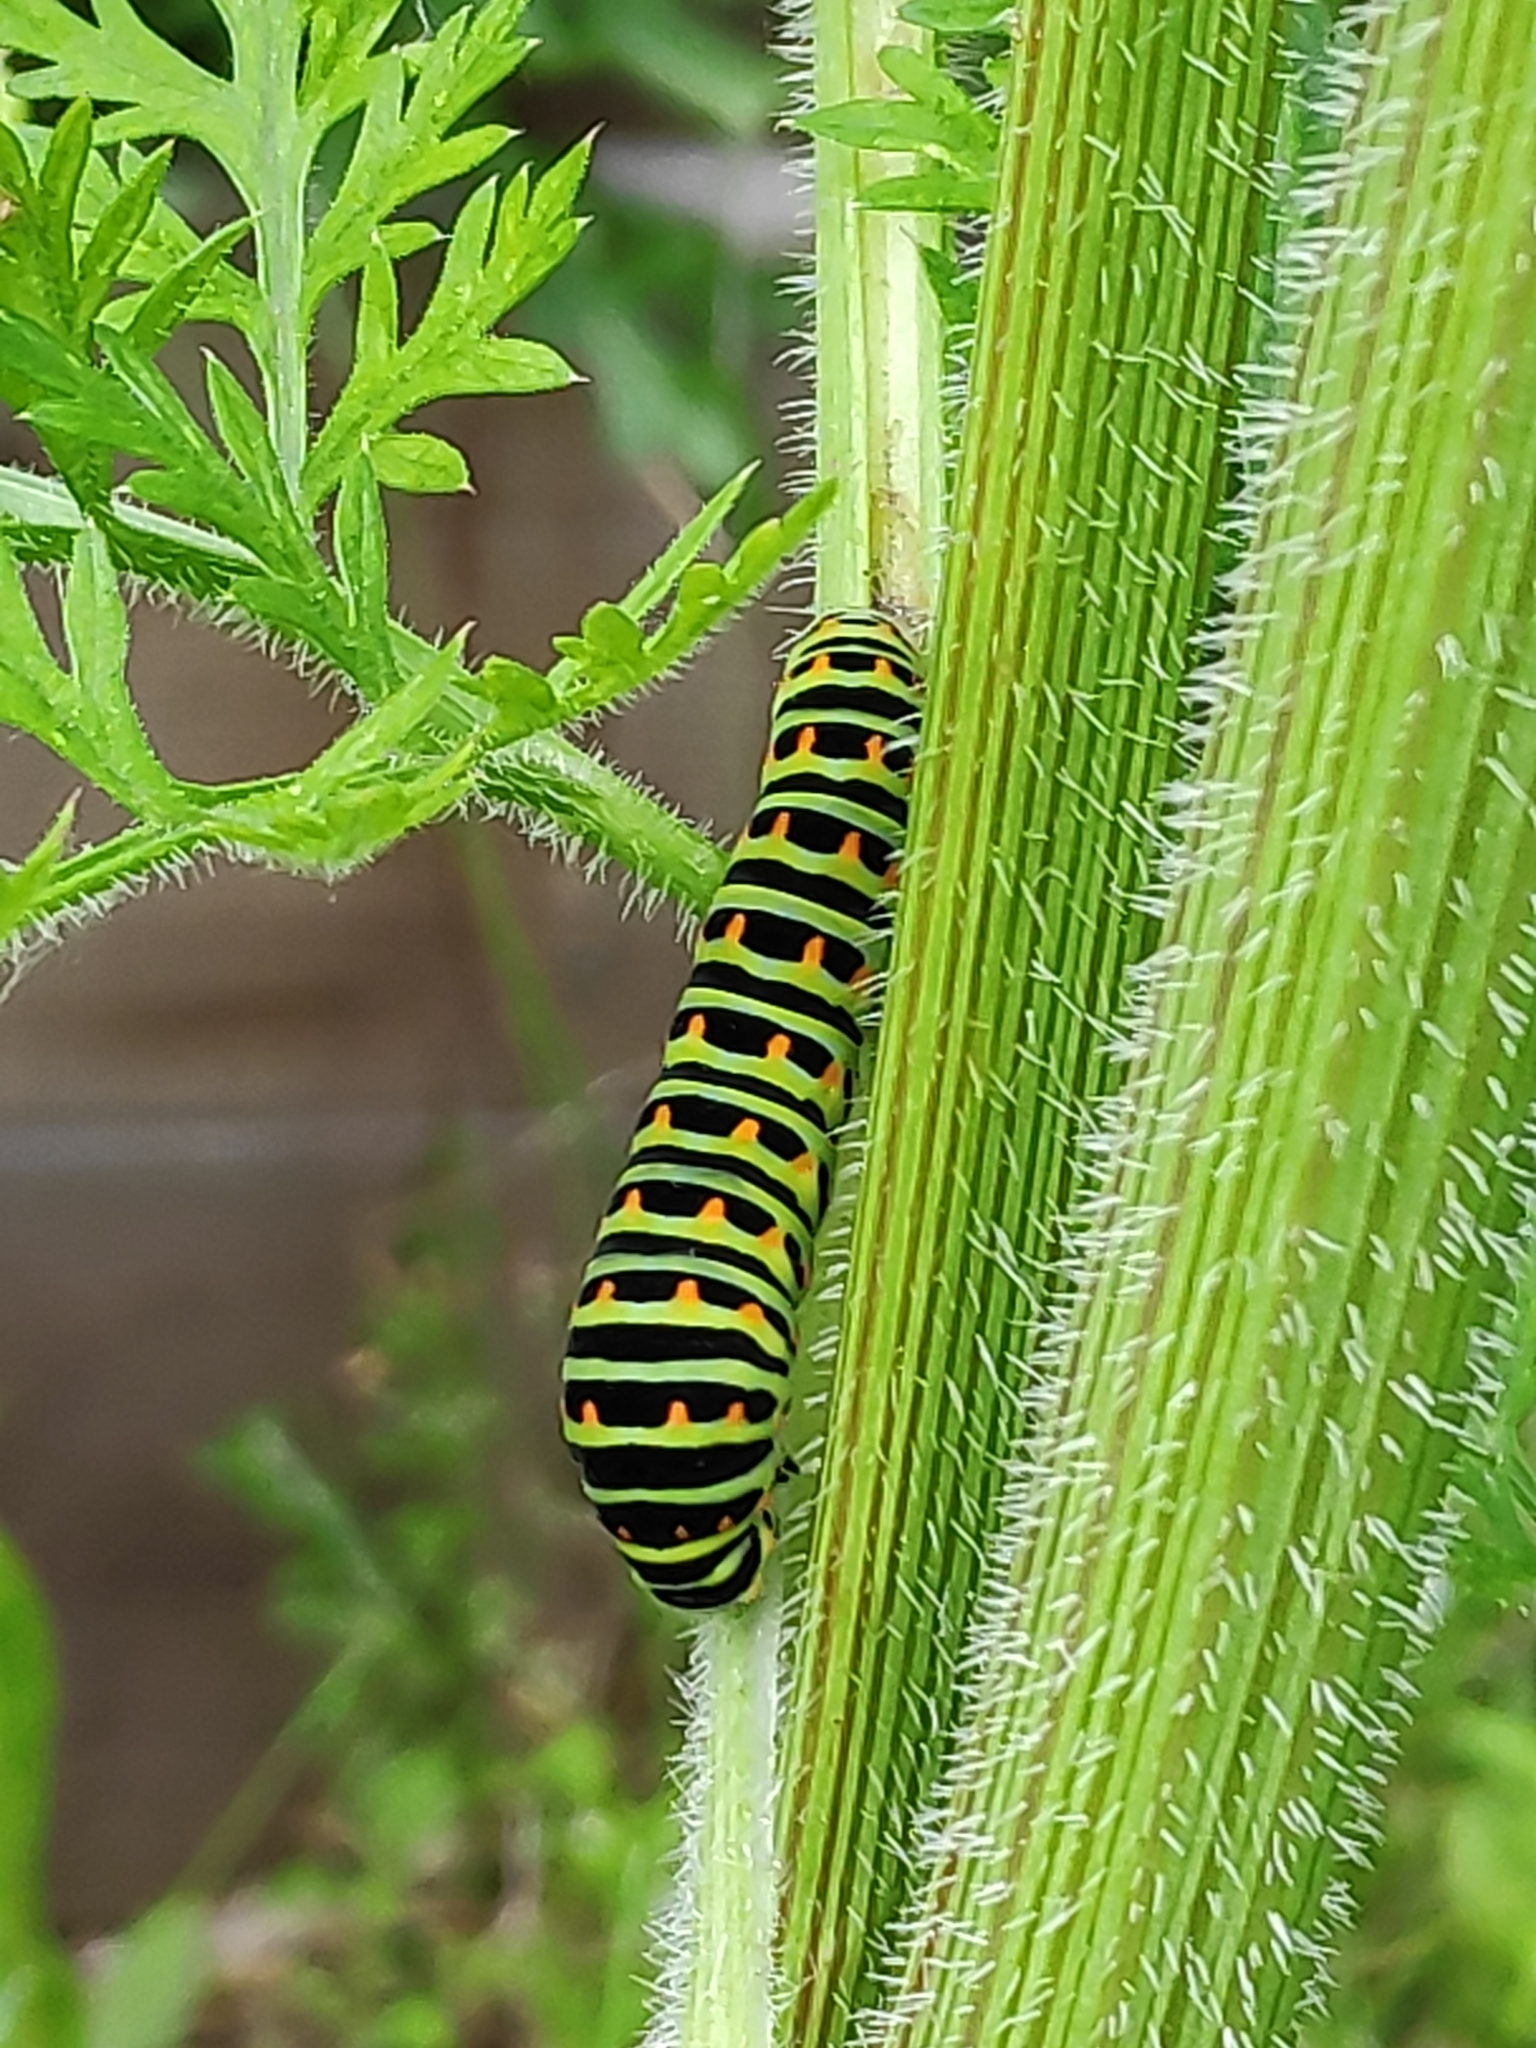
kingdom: Animalia
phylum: Arthropoda
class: Insecta
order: Lepidoptera
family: Papilionidae
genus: Papilio
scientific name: Papilio machaon
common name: Swallowtail
